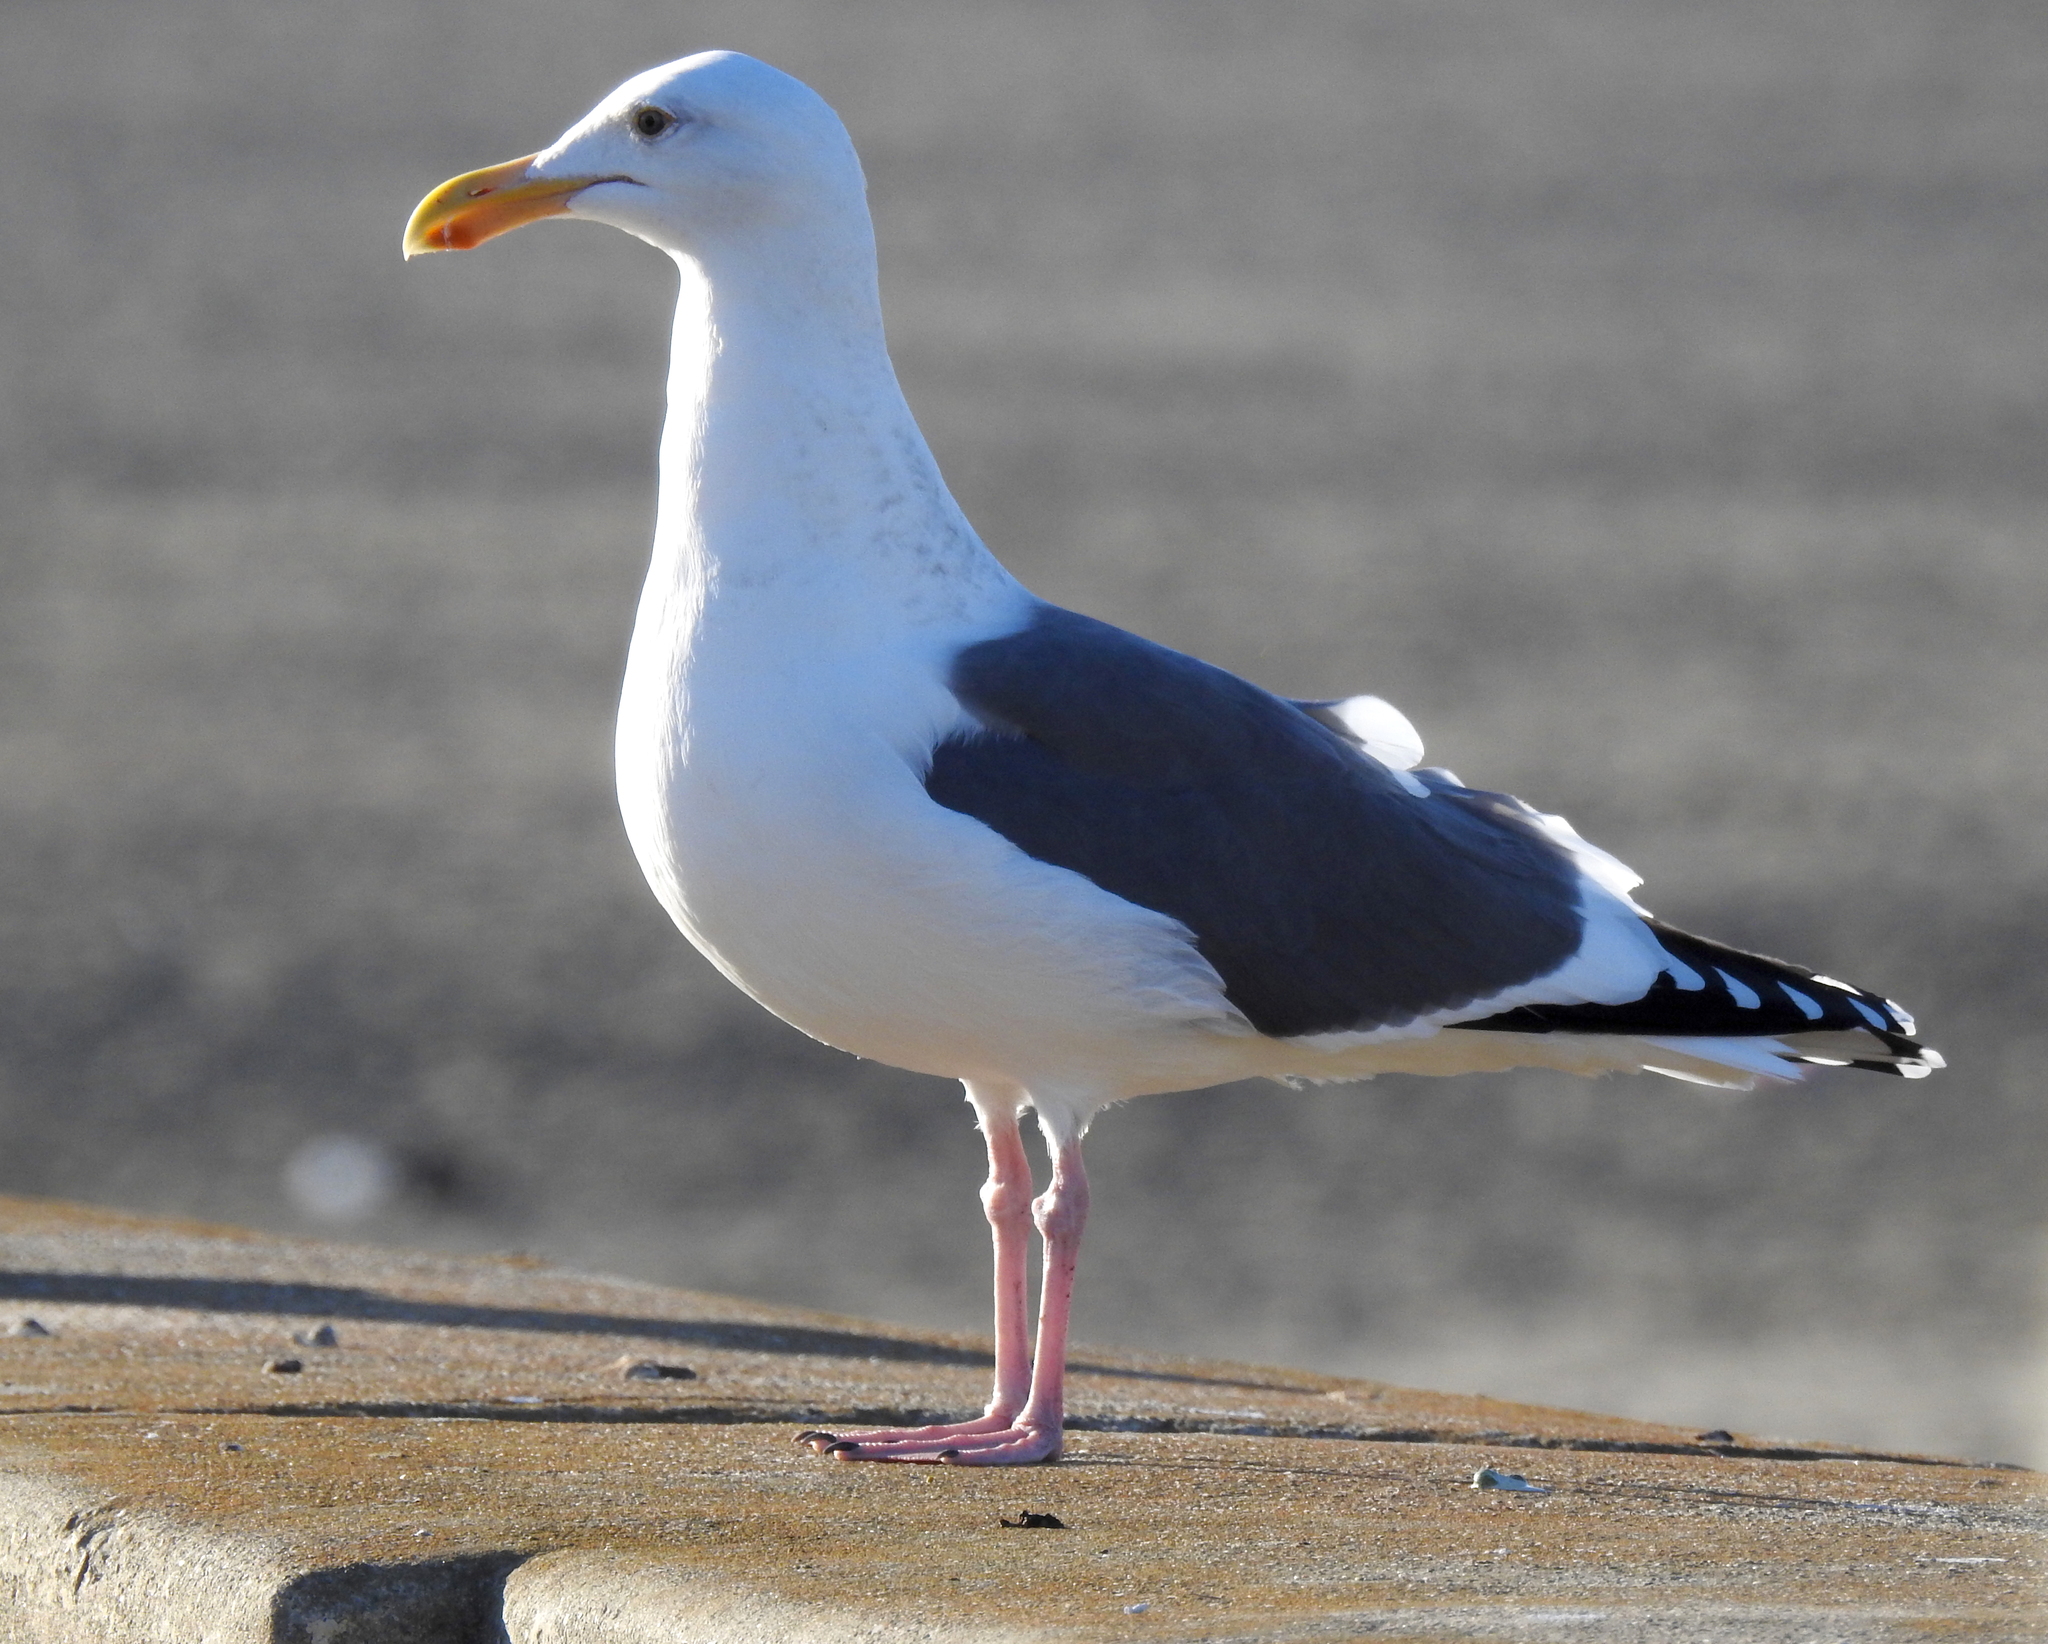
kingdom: Animalia
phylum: Chordata
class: Aves
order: Charadriiformes
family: Laridae
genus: Larus
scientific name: Larus occidentalis
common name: Western gull
